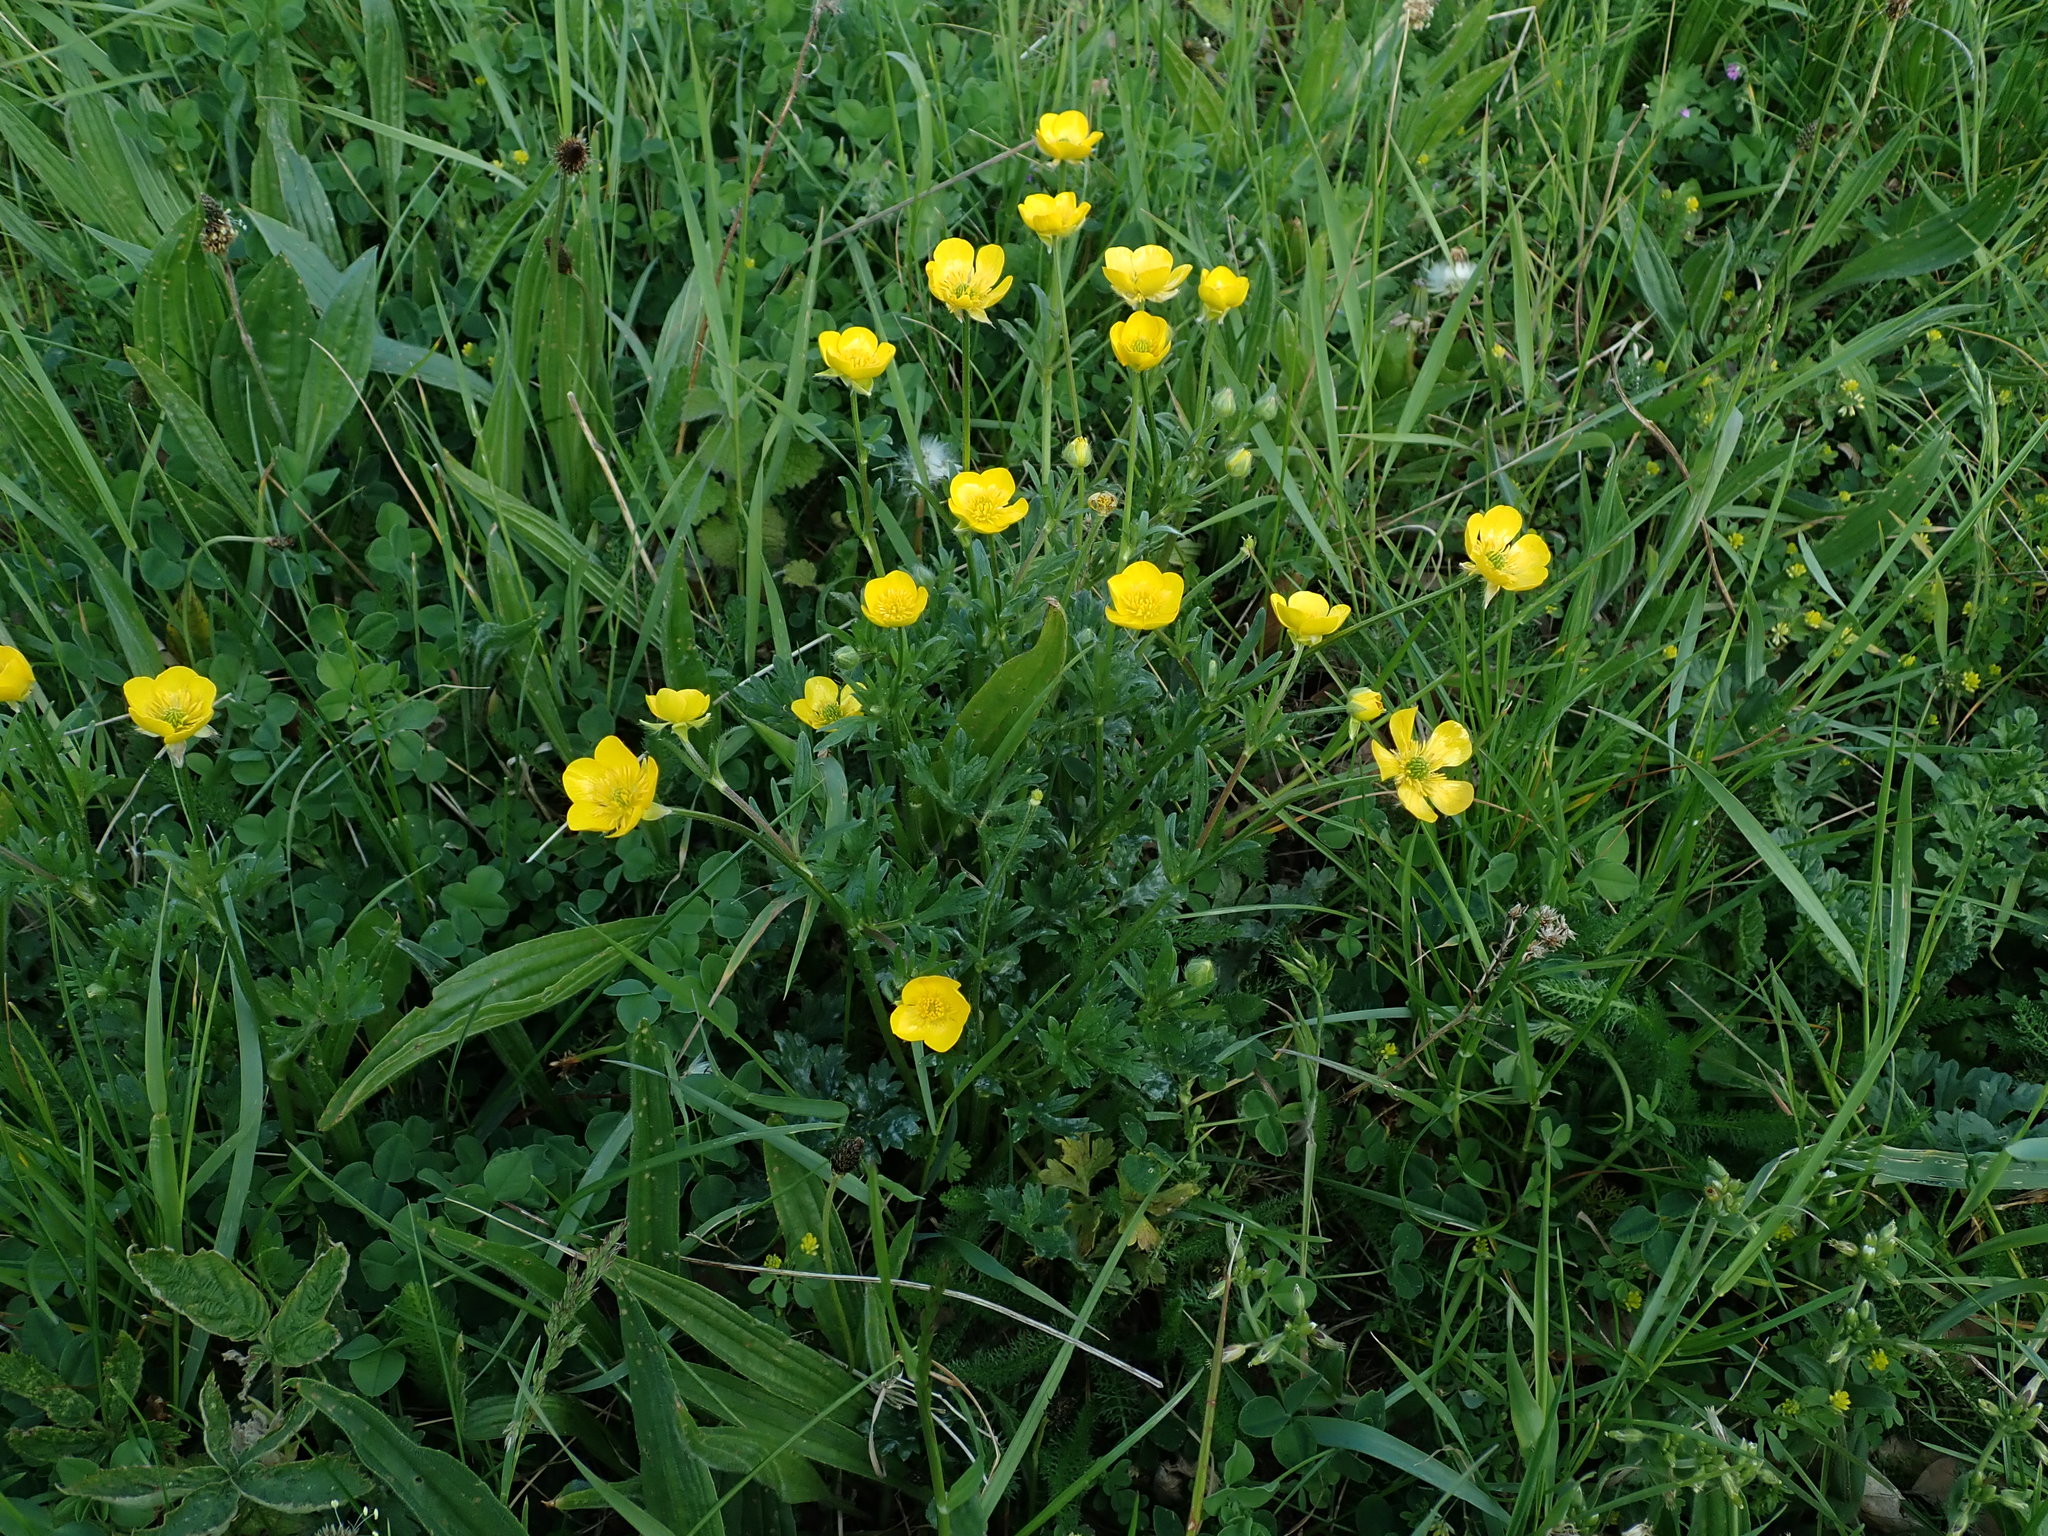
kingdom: Plantae
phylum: Tracheophyta
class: Magnoliopsida
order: Ranunculales
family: Ranunculaceae
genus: Ranunculus
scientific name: Ranunculus bulbosus
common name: Bulbous buttercup
